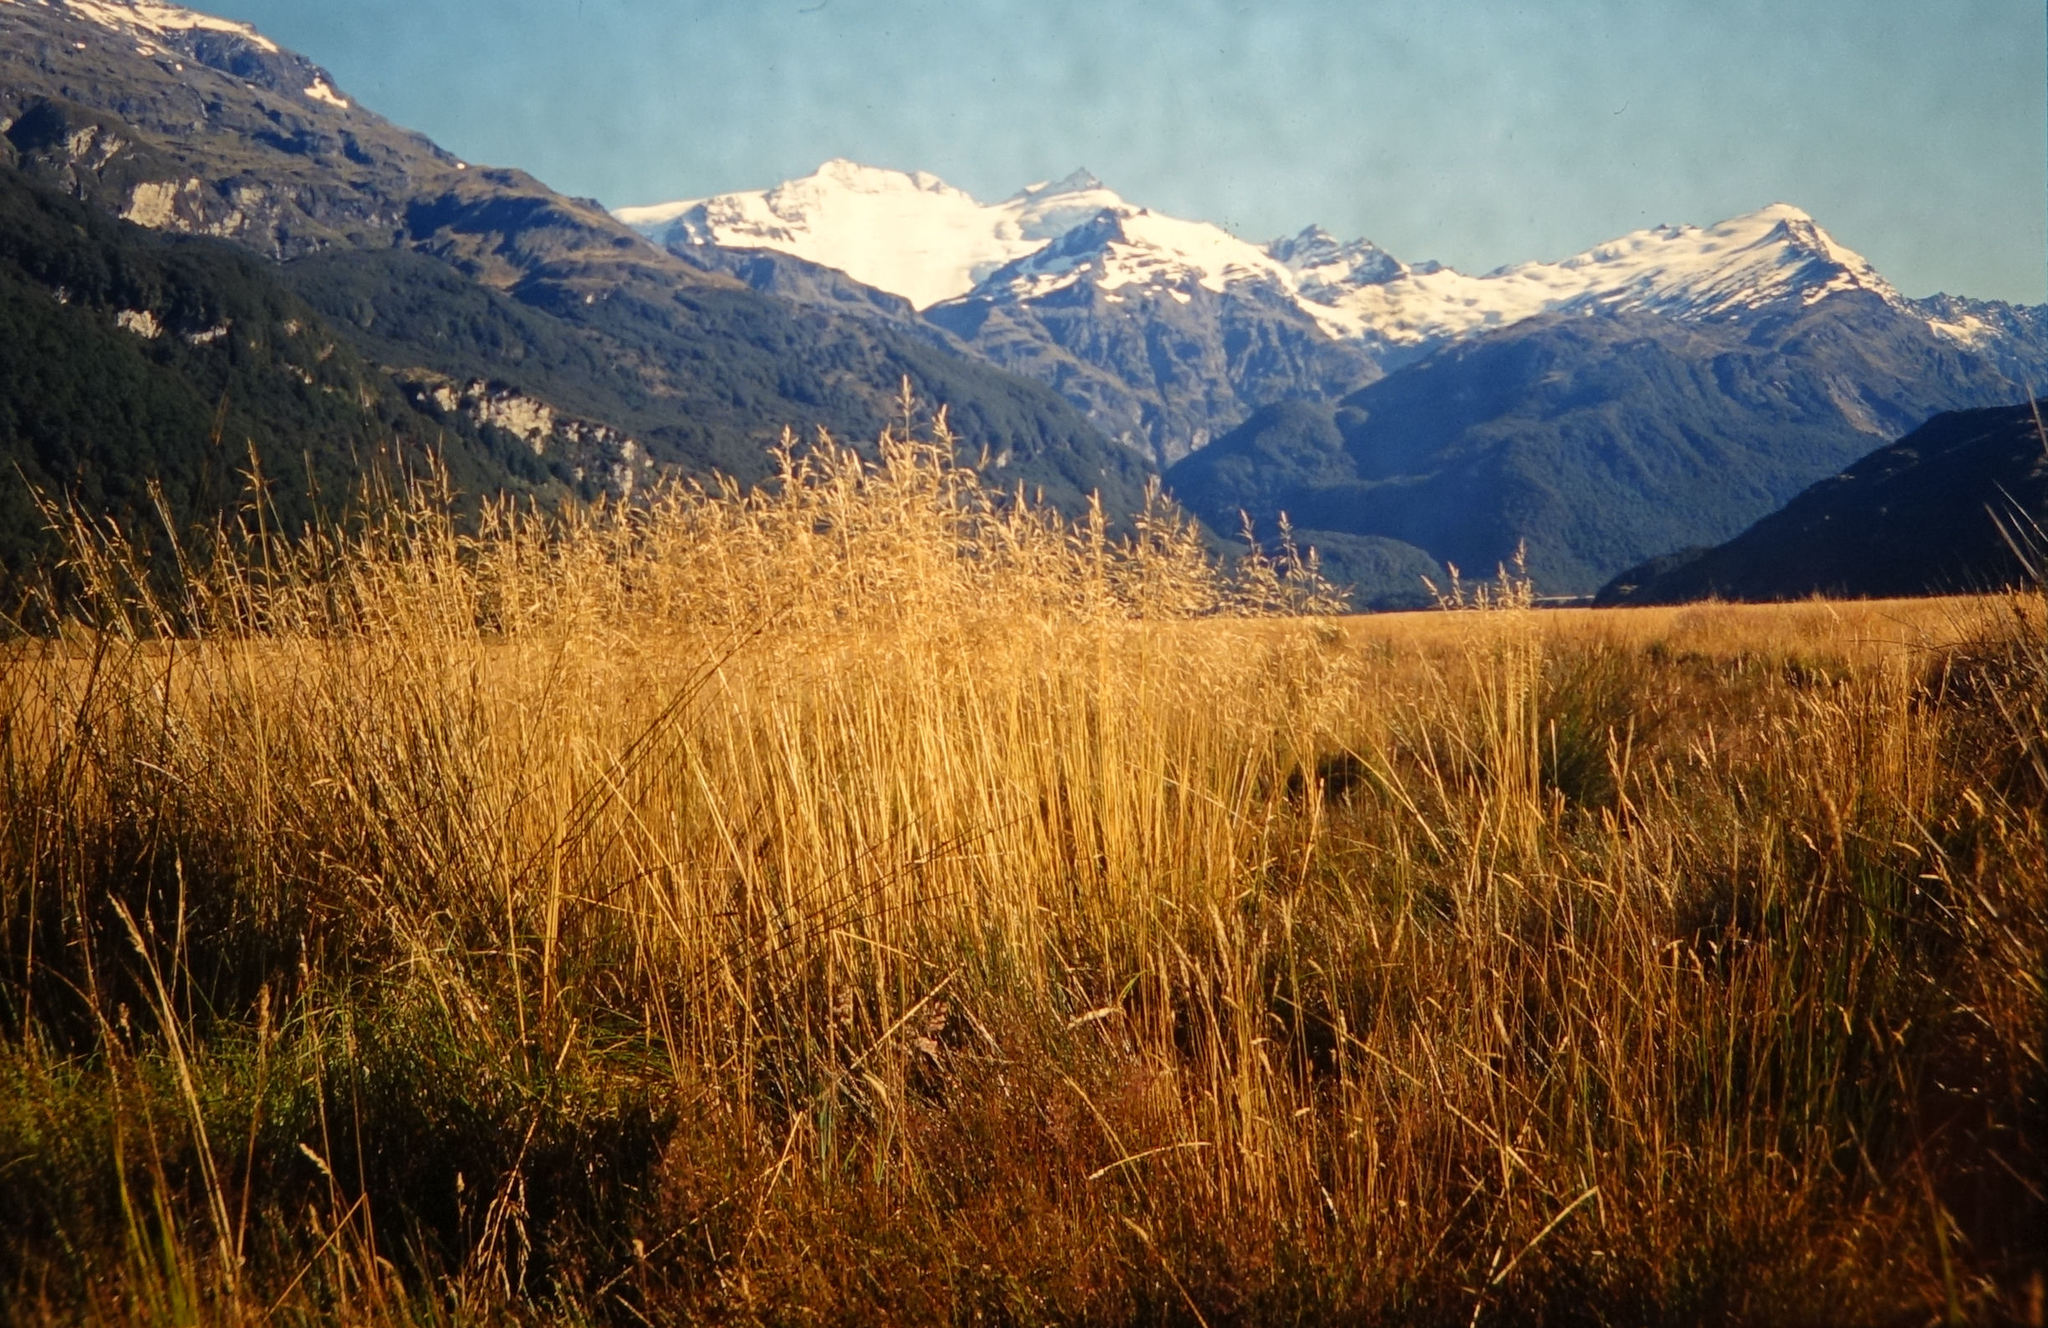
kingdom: Plantae
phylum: Tracheophyta
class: Liliopsida
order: Poales
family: Poaceae
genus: Deschampsia
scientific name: Deschampsia cespitosa
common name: Tufted hair-grass
